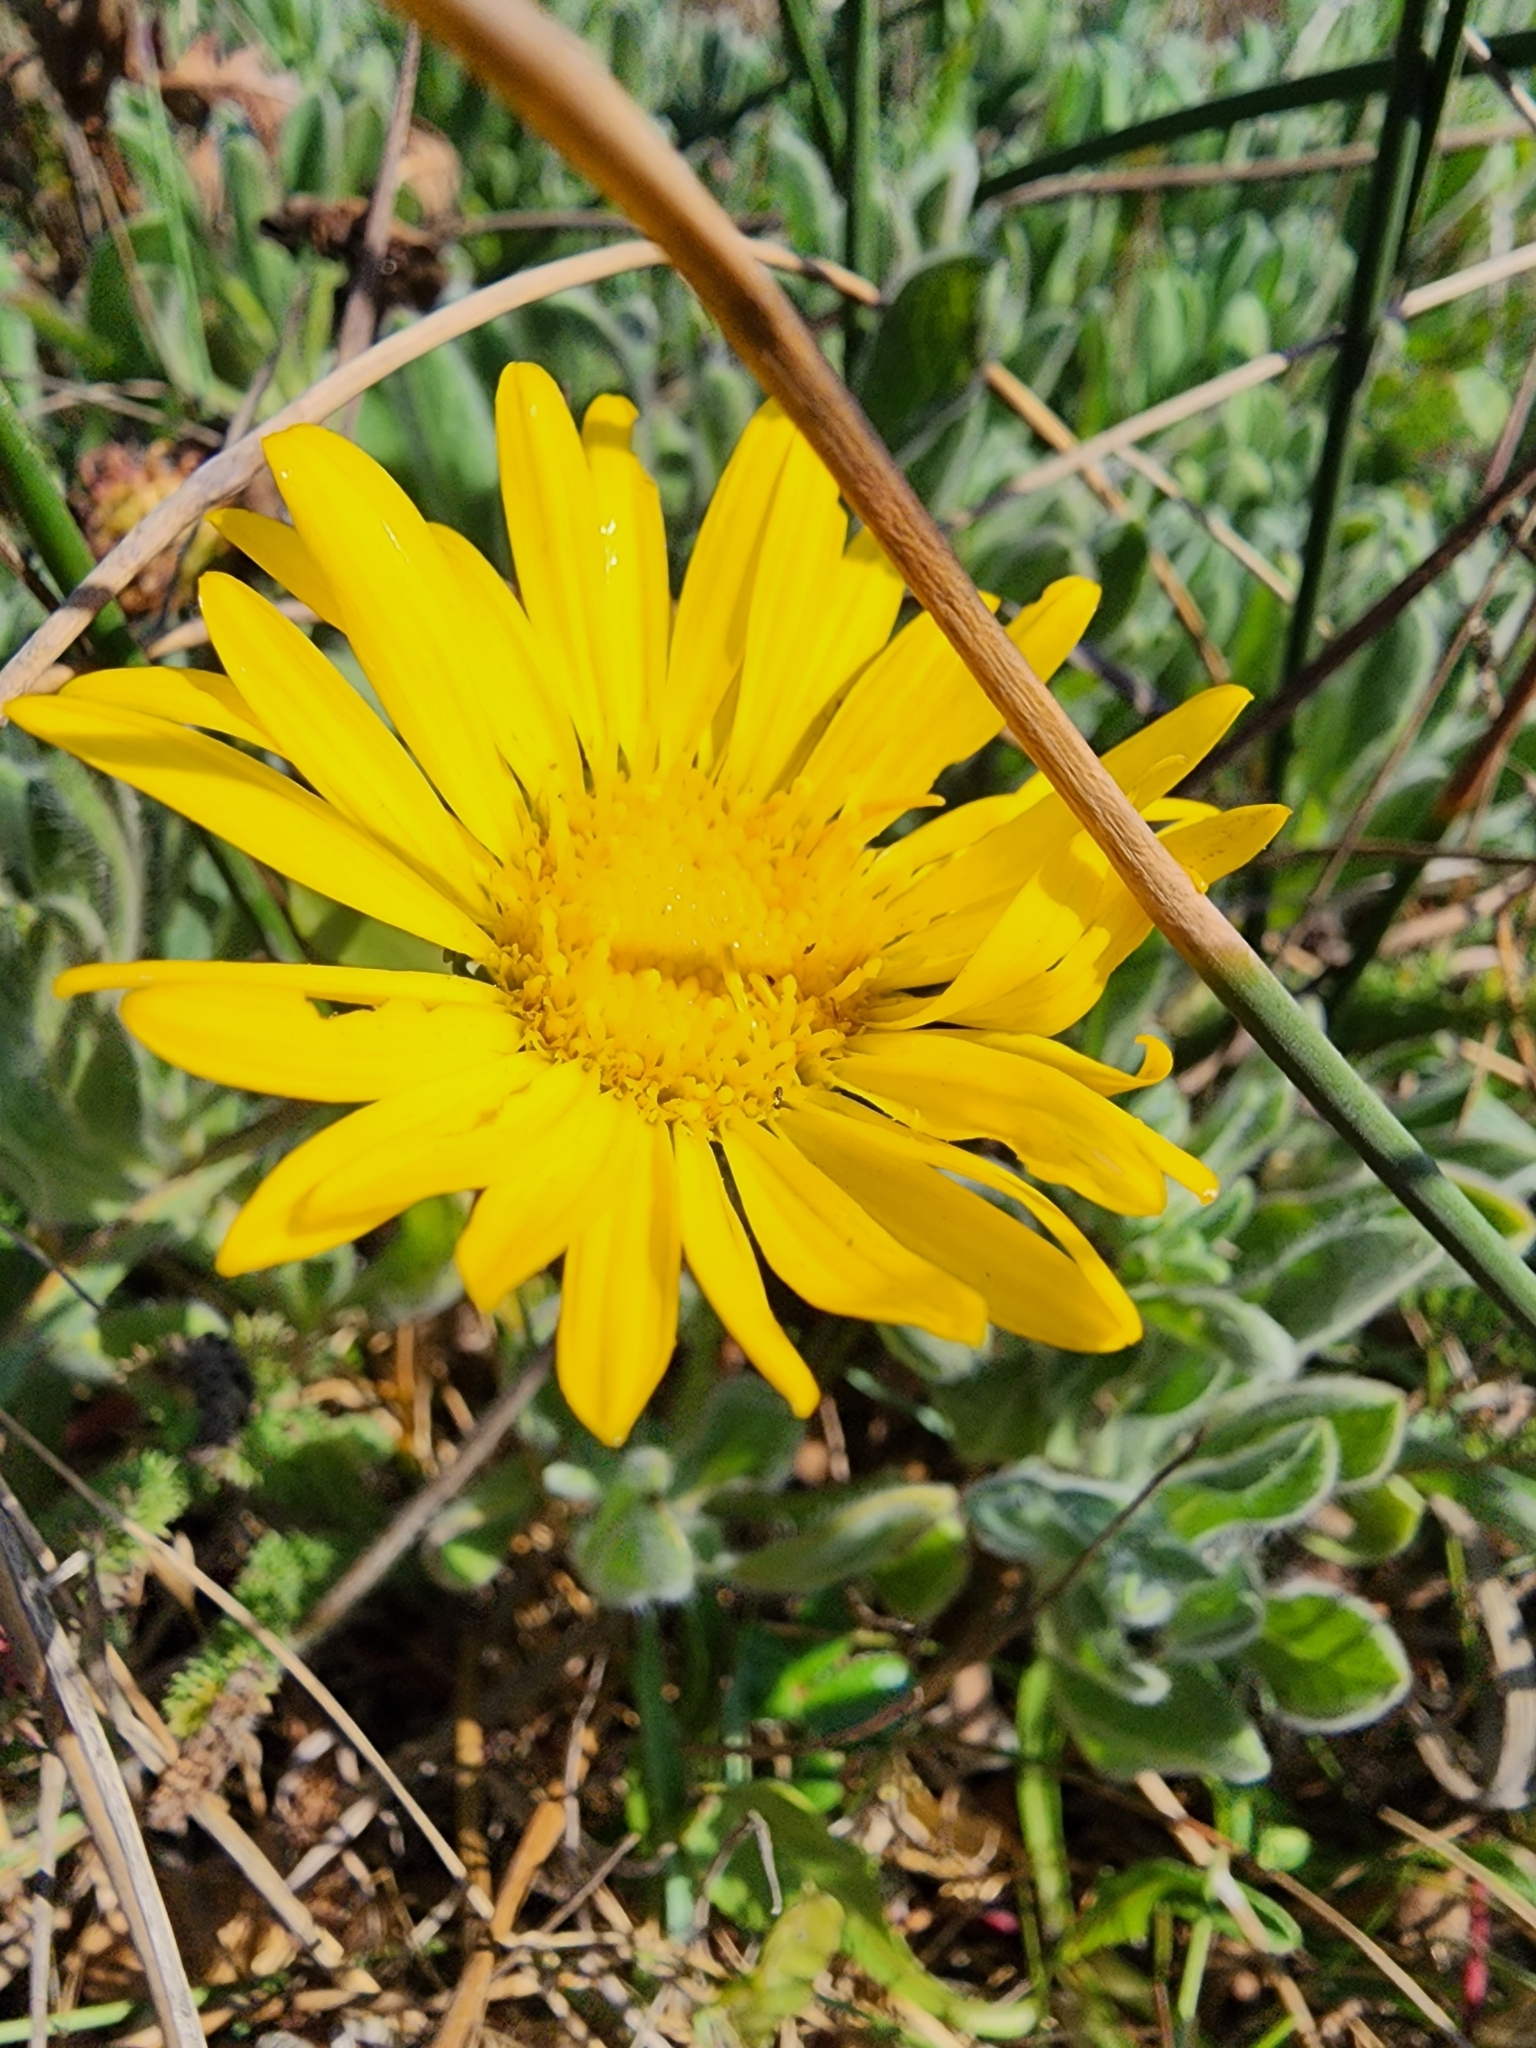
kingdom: Plantae
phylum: Tracheophyta
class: Magnoliopsida
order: Asterales
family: Asteraceae
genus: Grindelia
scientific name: Grindelia hirsutula
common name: Hairy gumweed
